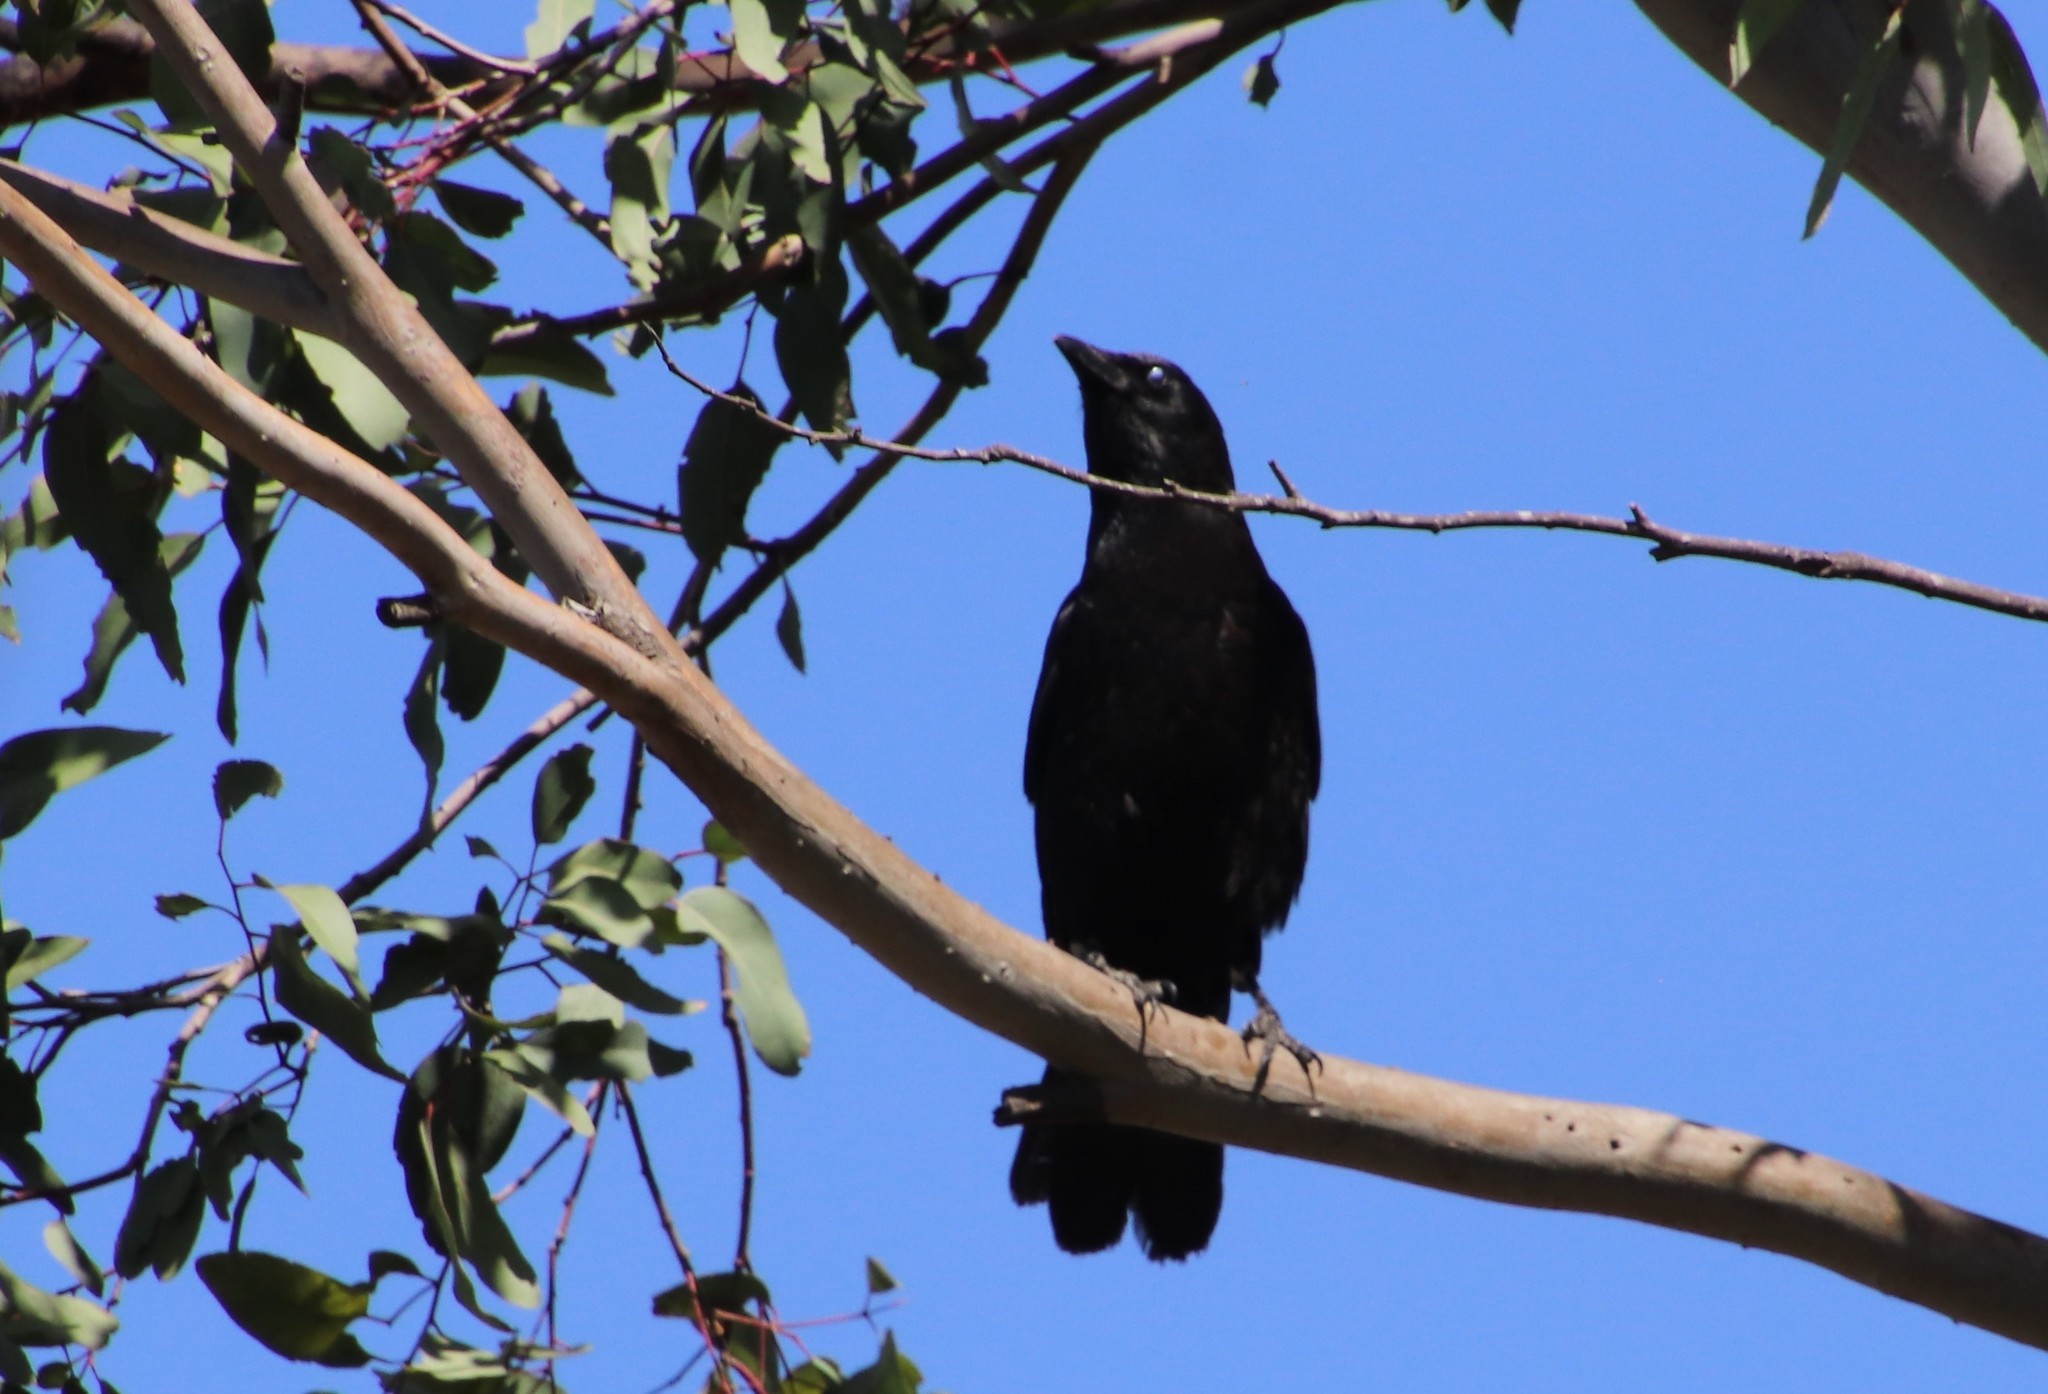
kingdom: Animalia
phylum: Chordata
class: Aves
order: Passeriformes
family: Corvidae
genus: Corvus
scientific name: Corvus brachyrhynchos
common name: American crow
